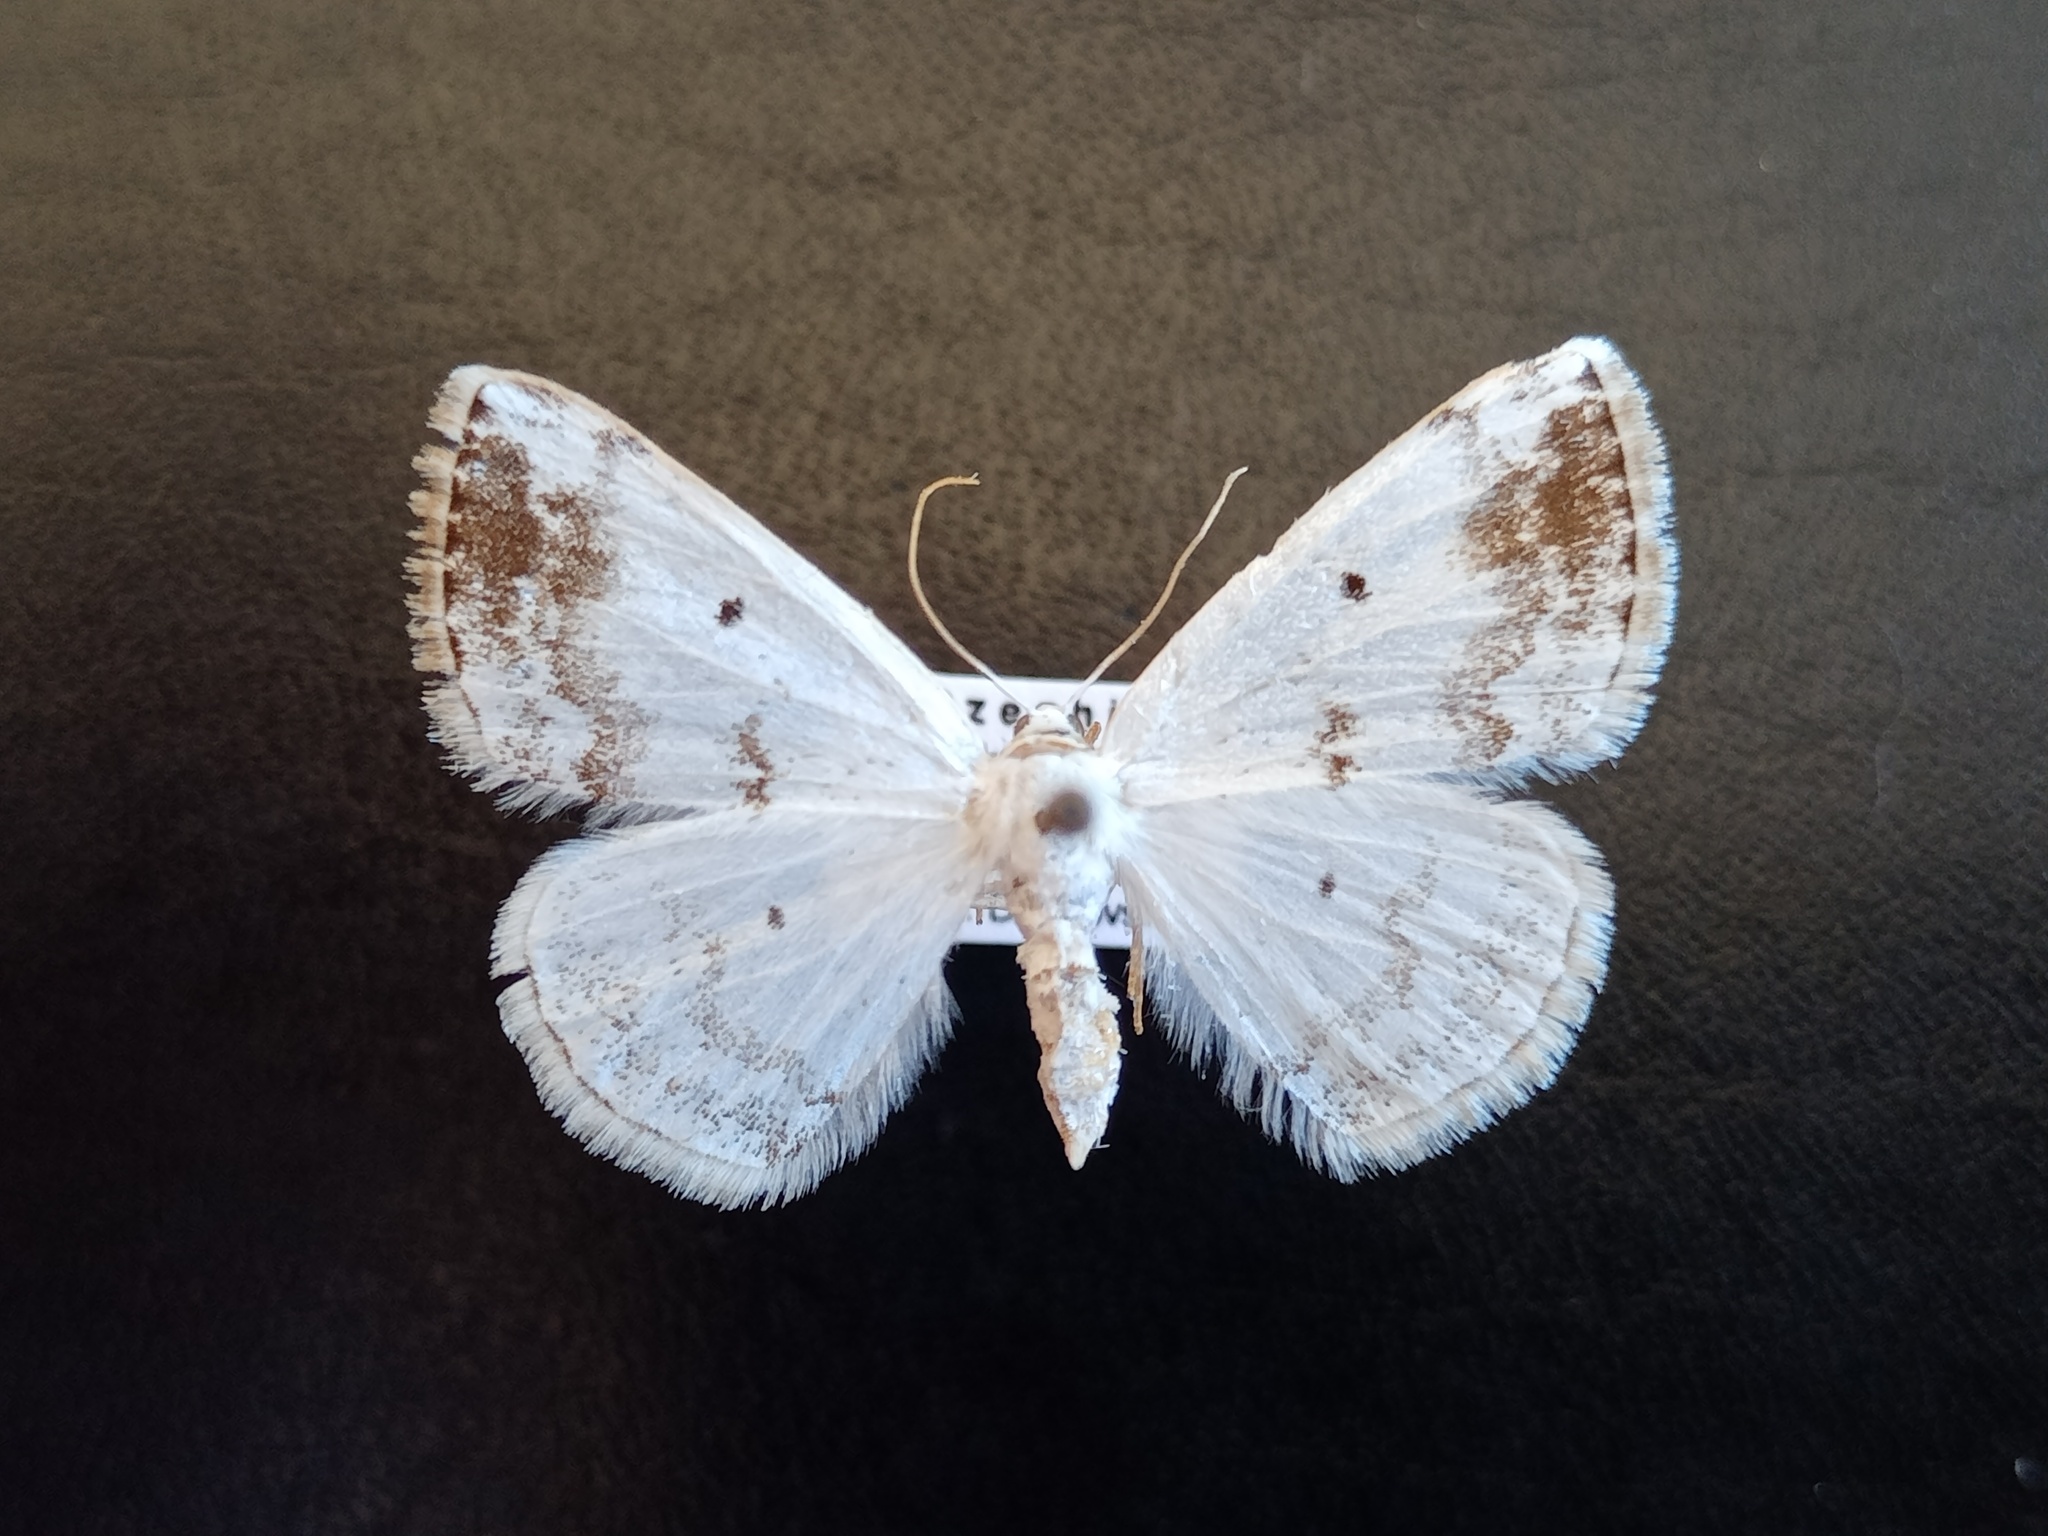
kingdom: Animalia
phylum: Arthropoda
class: Insecta
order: Lepidoptera
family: Geometridae
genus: Lomographa
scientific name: Lomographa temerata
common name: Clouded silver
